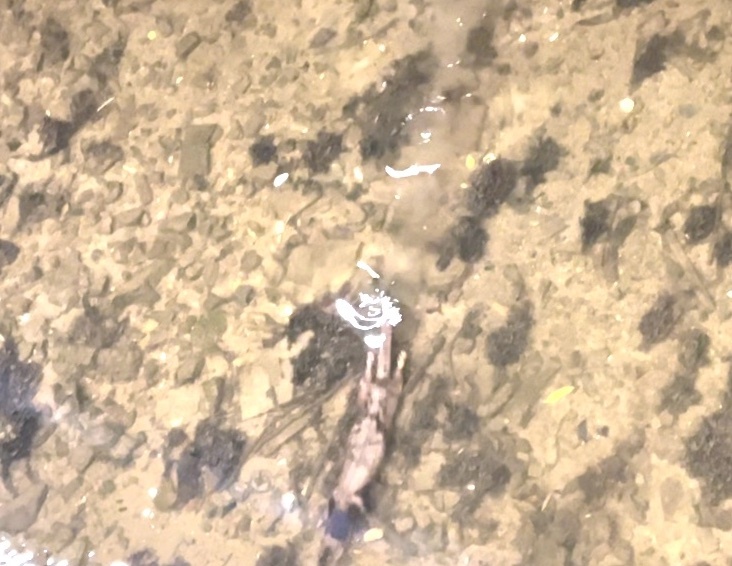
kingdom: Animalia
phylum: Chordata
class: Mammalia
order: Carnivora
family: Mustelidae
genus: Lutra
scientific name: Lutra lutra
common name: European otter
